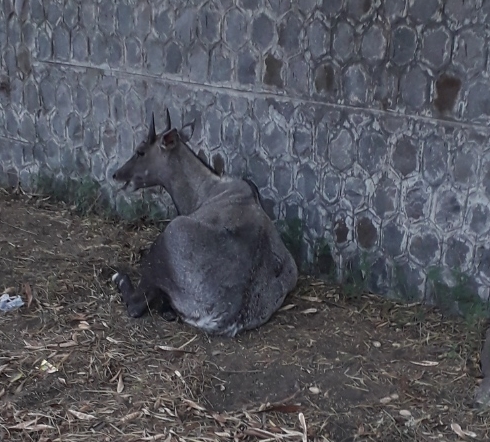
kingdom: Animalia
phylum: Chordata
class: Mammalia
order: Artiodactyla
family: Bovidae
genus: Boselaphus
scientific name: Boselaphus tragocamelus
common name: Nilgai
